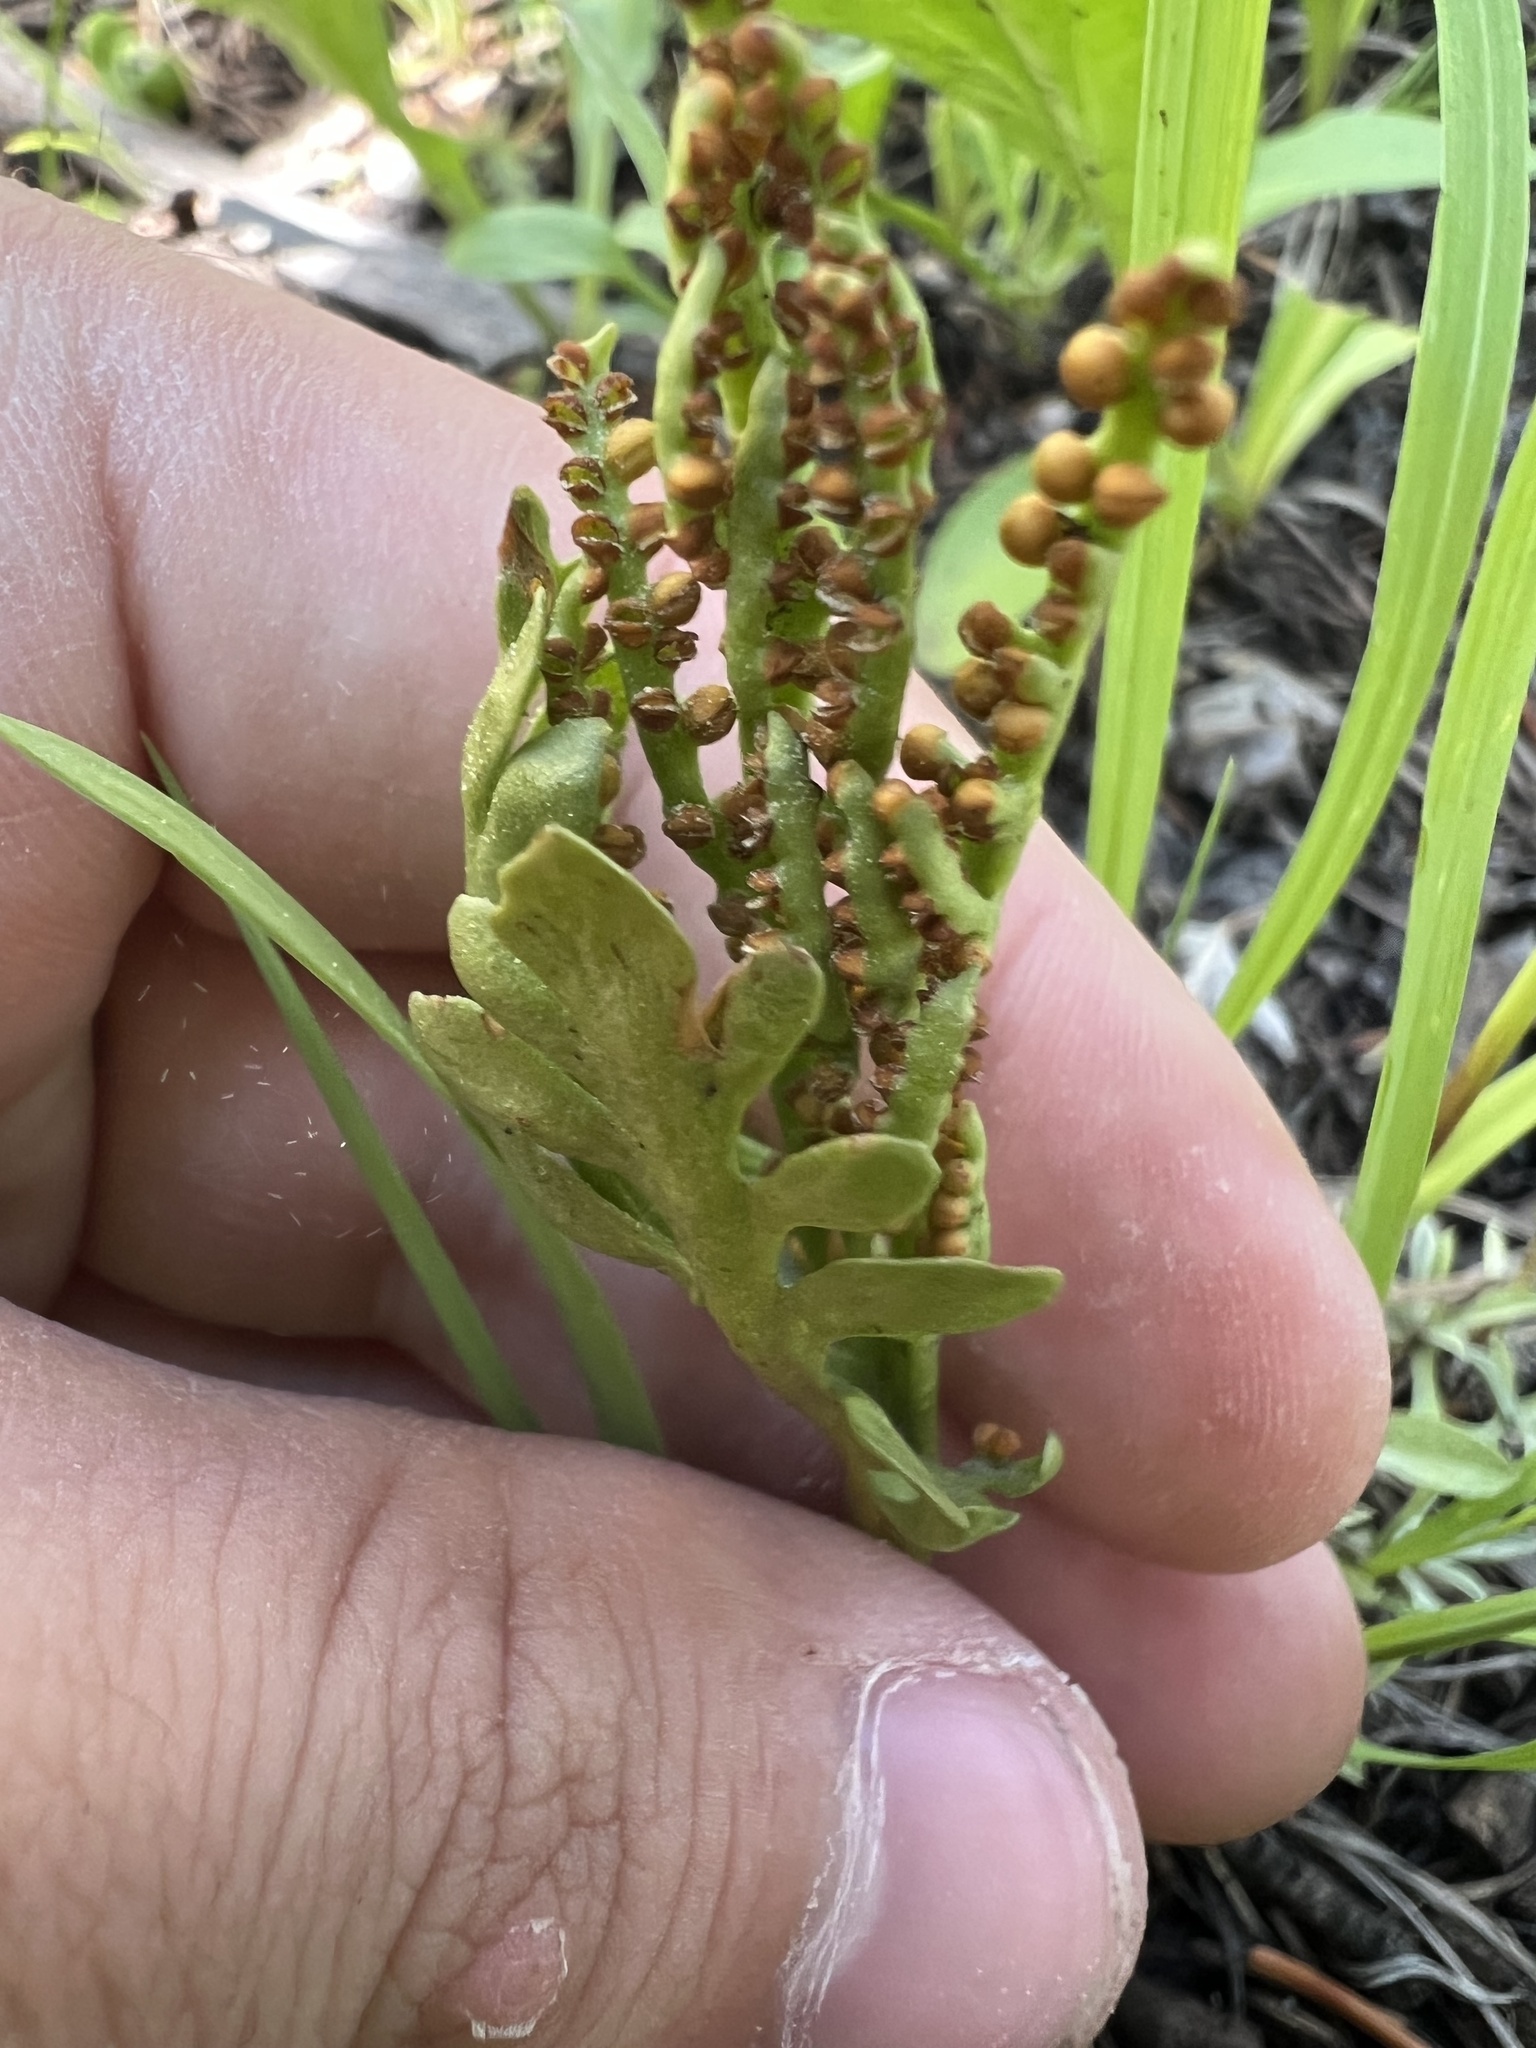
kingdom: Plantae
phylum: Tracheophyta
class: Polypodiopsida
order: Ophioglossales
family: Ophioglossaceae
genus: Botrychium
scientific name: Botrychium hesperium
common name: Western moonwort
